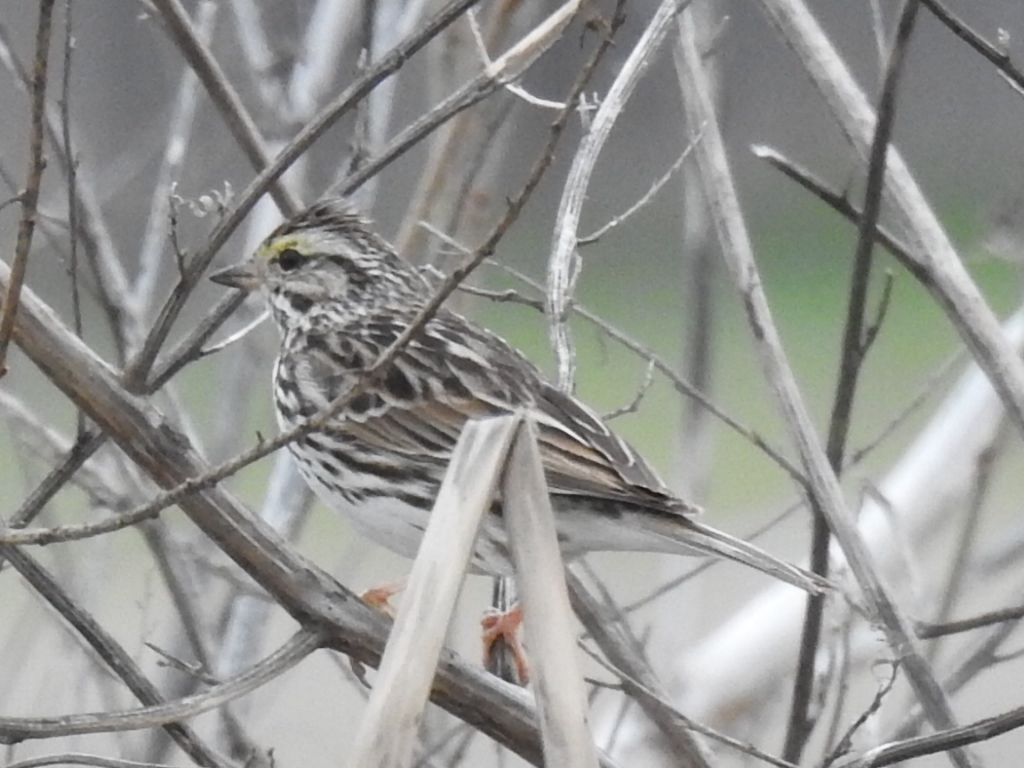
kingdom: Animalia
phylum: Chordata
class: Aves
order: Passeriformes
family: Passerellidae
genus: Passerculus
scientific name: Passerculus sandwichensis
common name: Savannah sparrow
